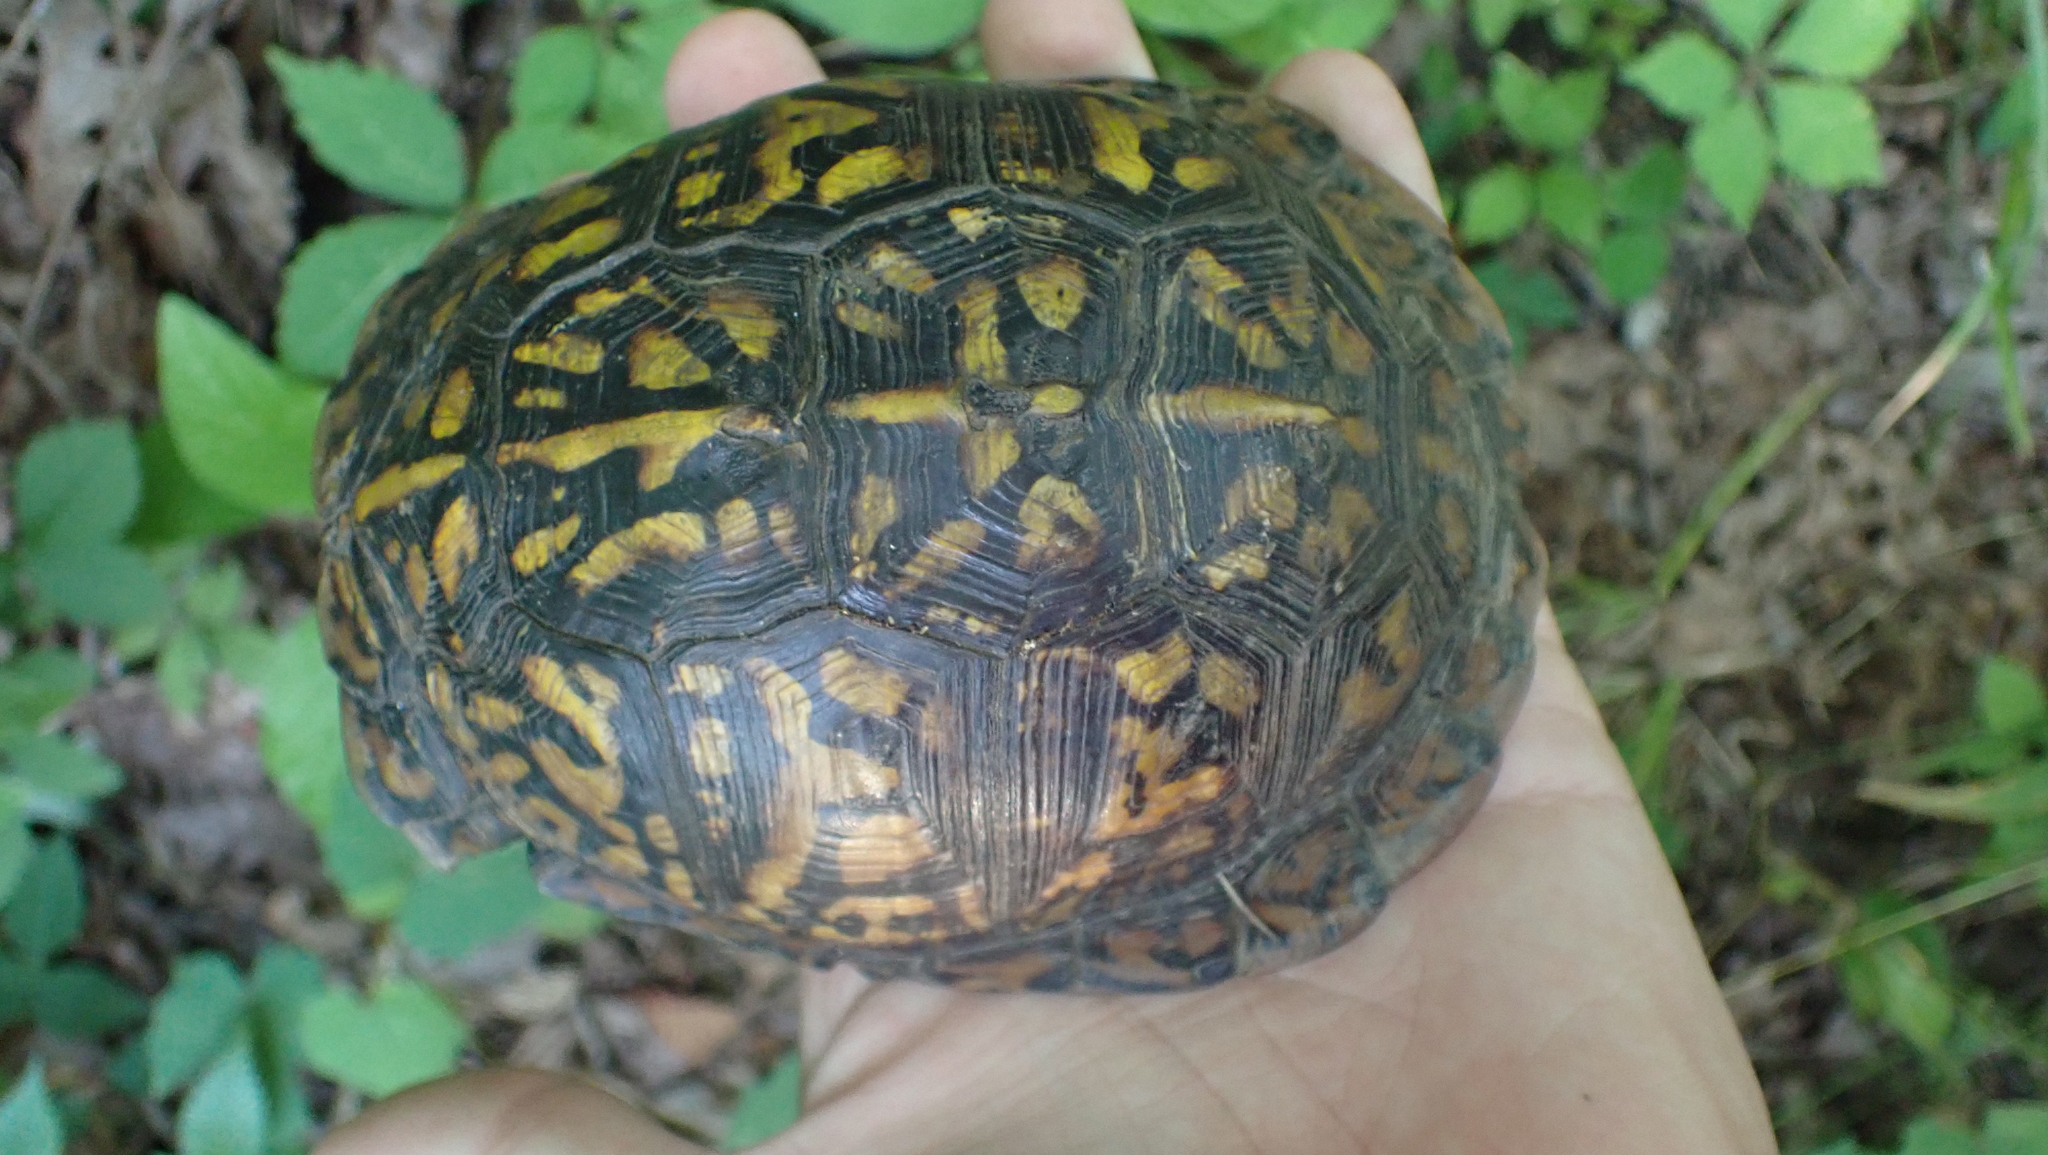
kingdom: Animalia
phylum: Chordata
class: Testudines
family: Emydidae
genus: Terrapene
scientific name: Terrapene carolina
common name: Common box turtle
